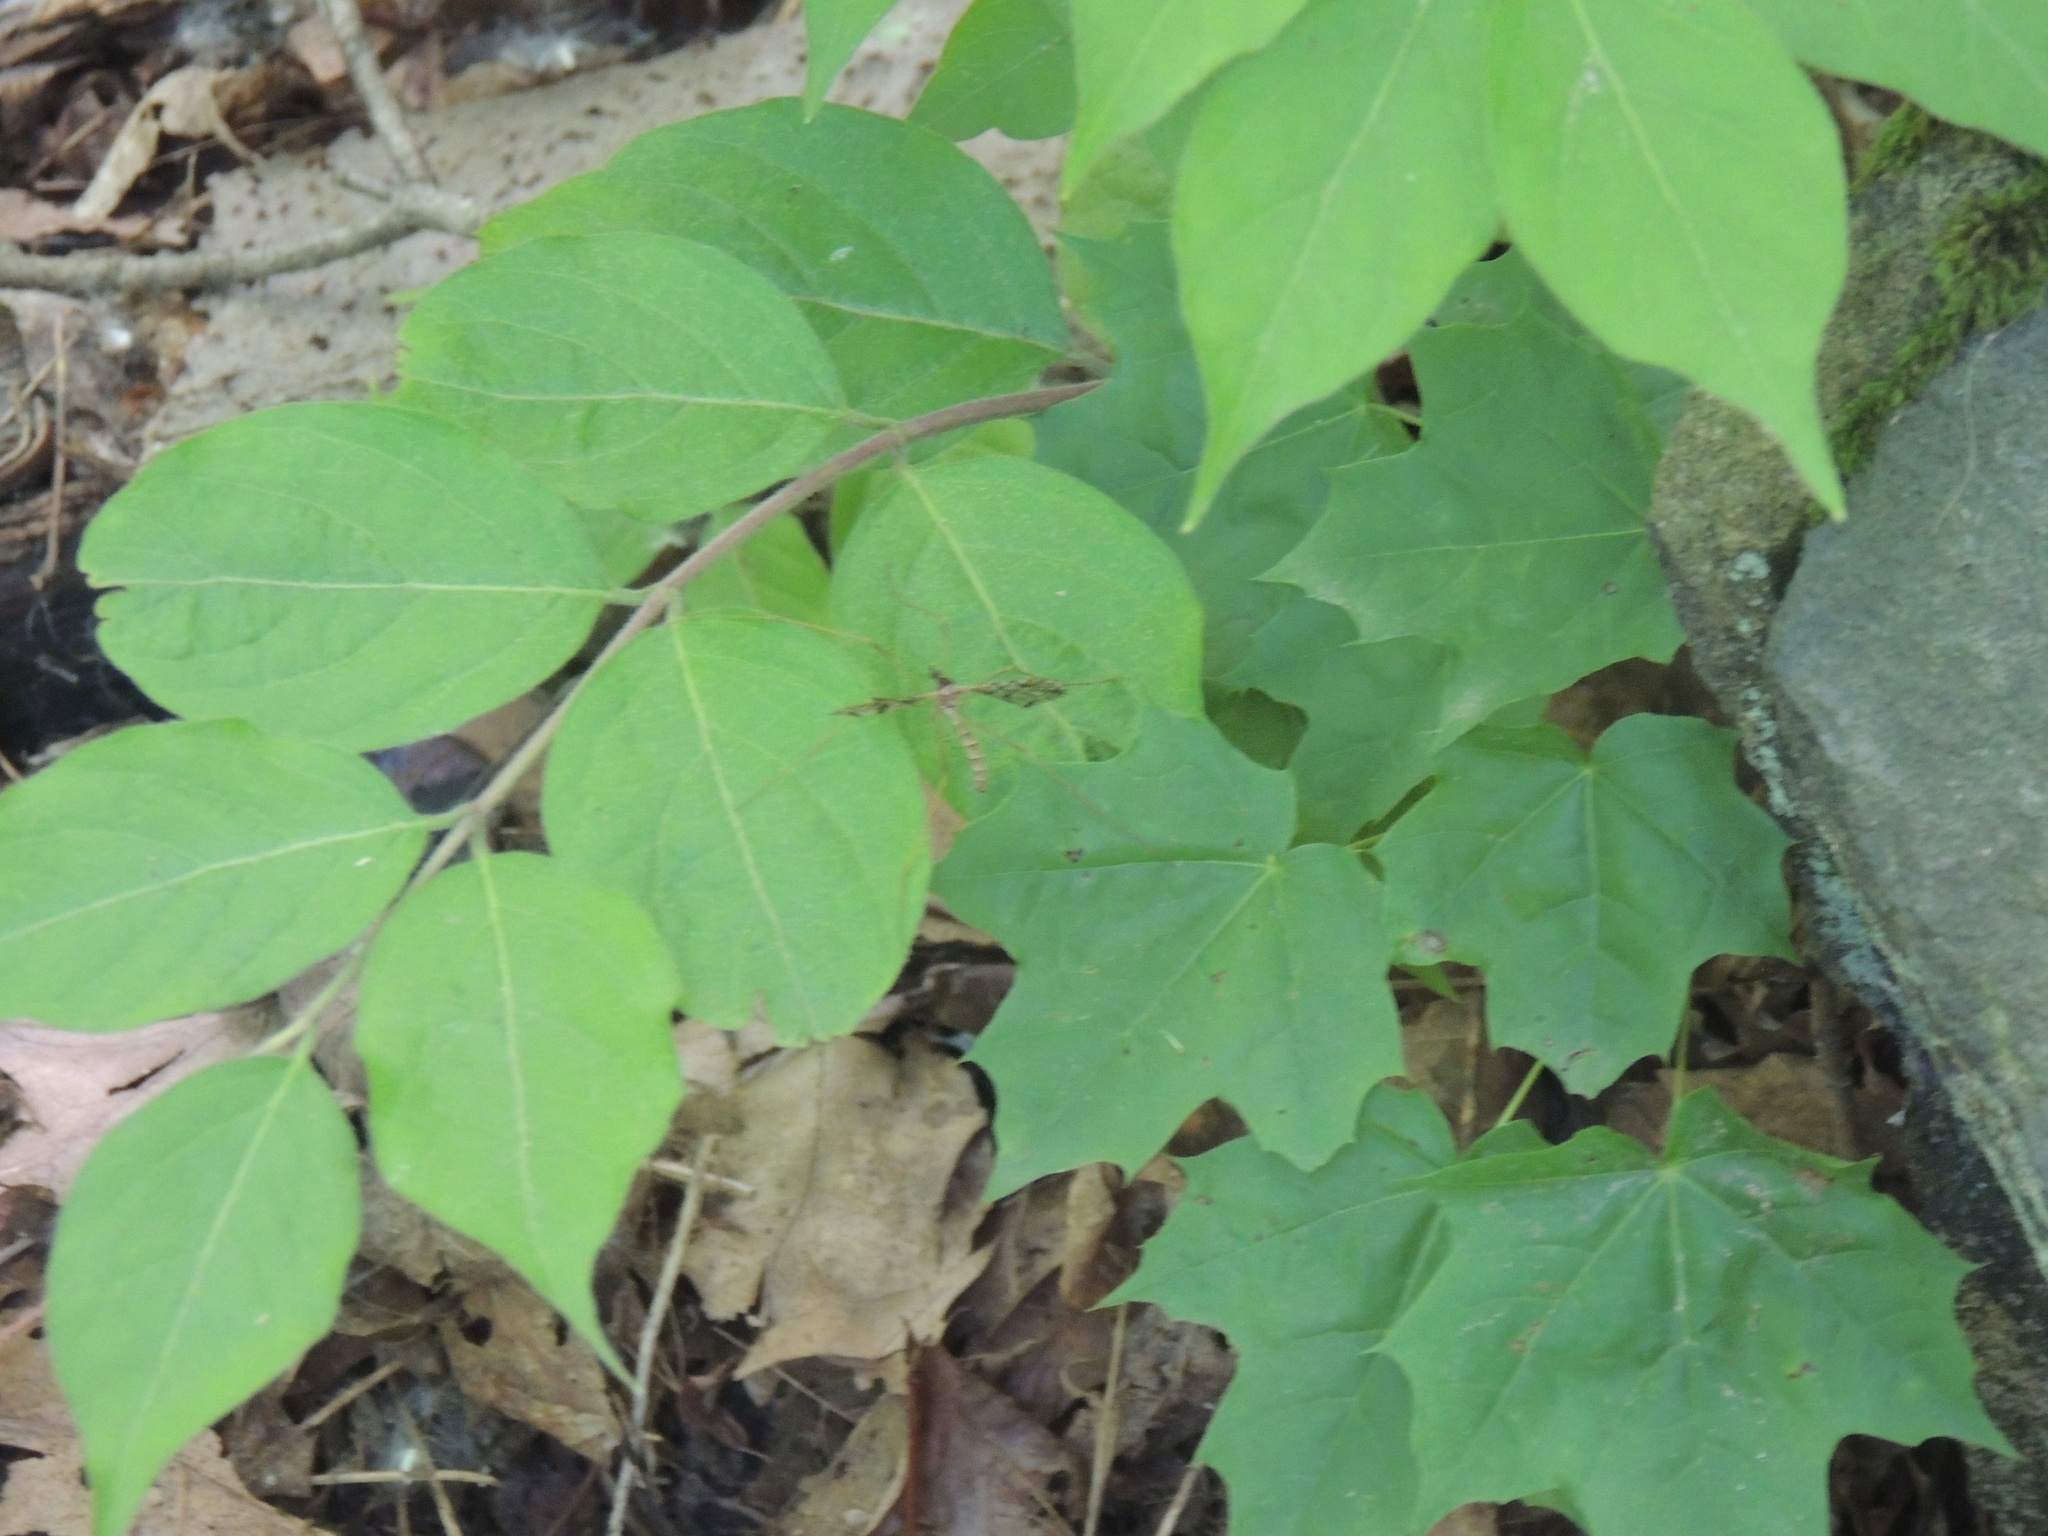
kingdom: Animalia
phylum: Arthropoda
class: Insecta
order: Diptera
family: Limoniidae
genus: Epiphragma
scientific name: Epiphragma solatrix
